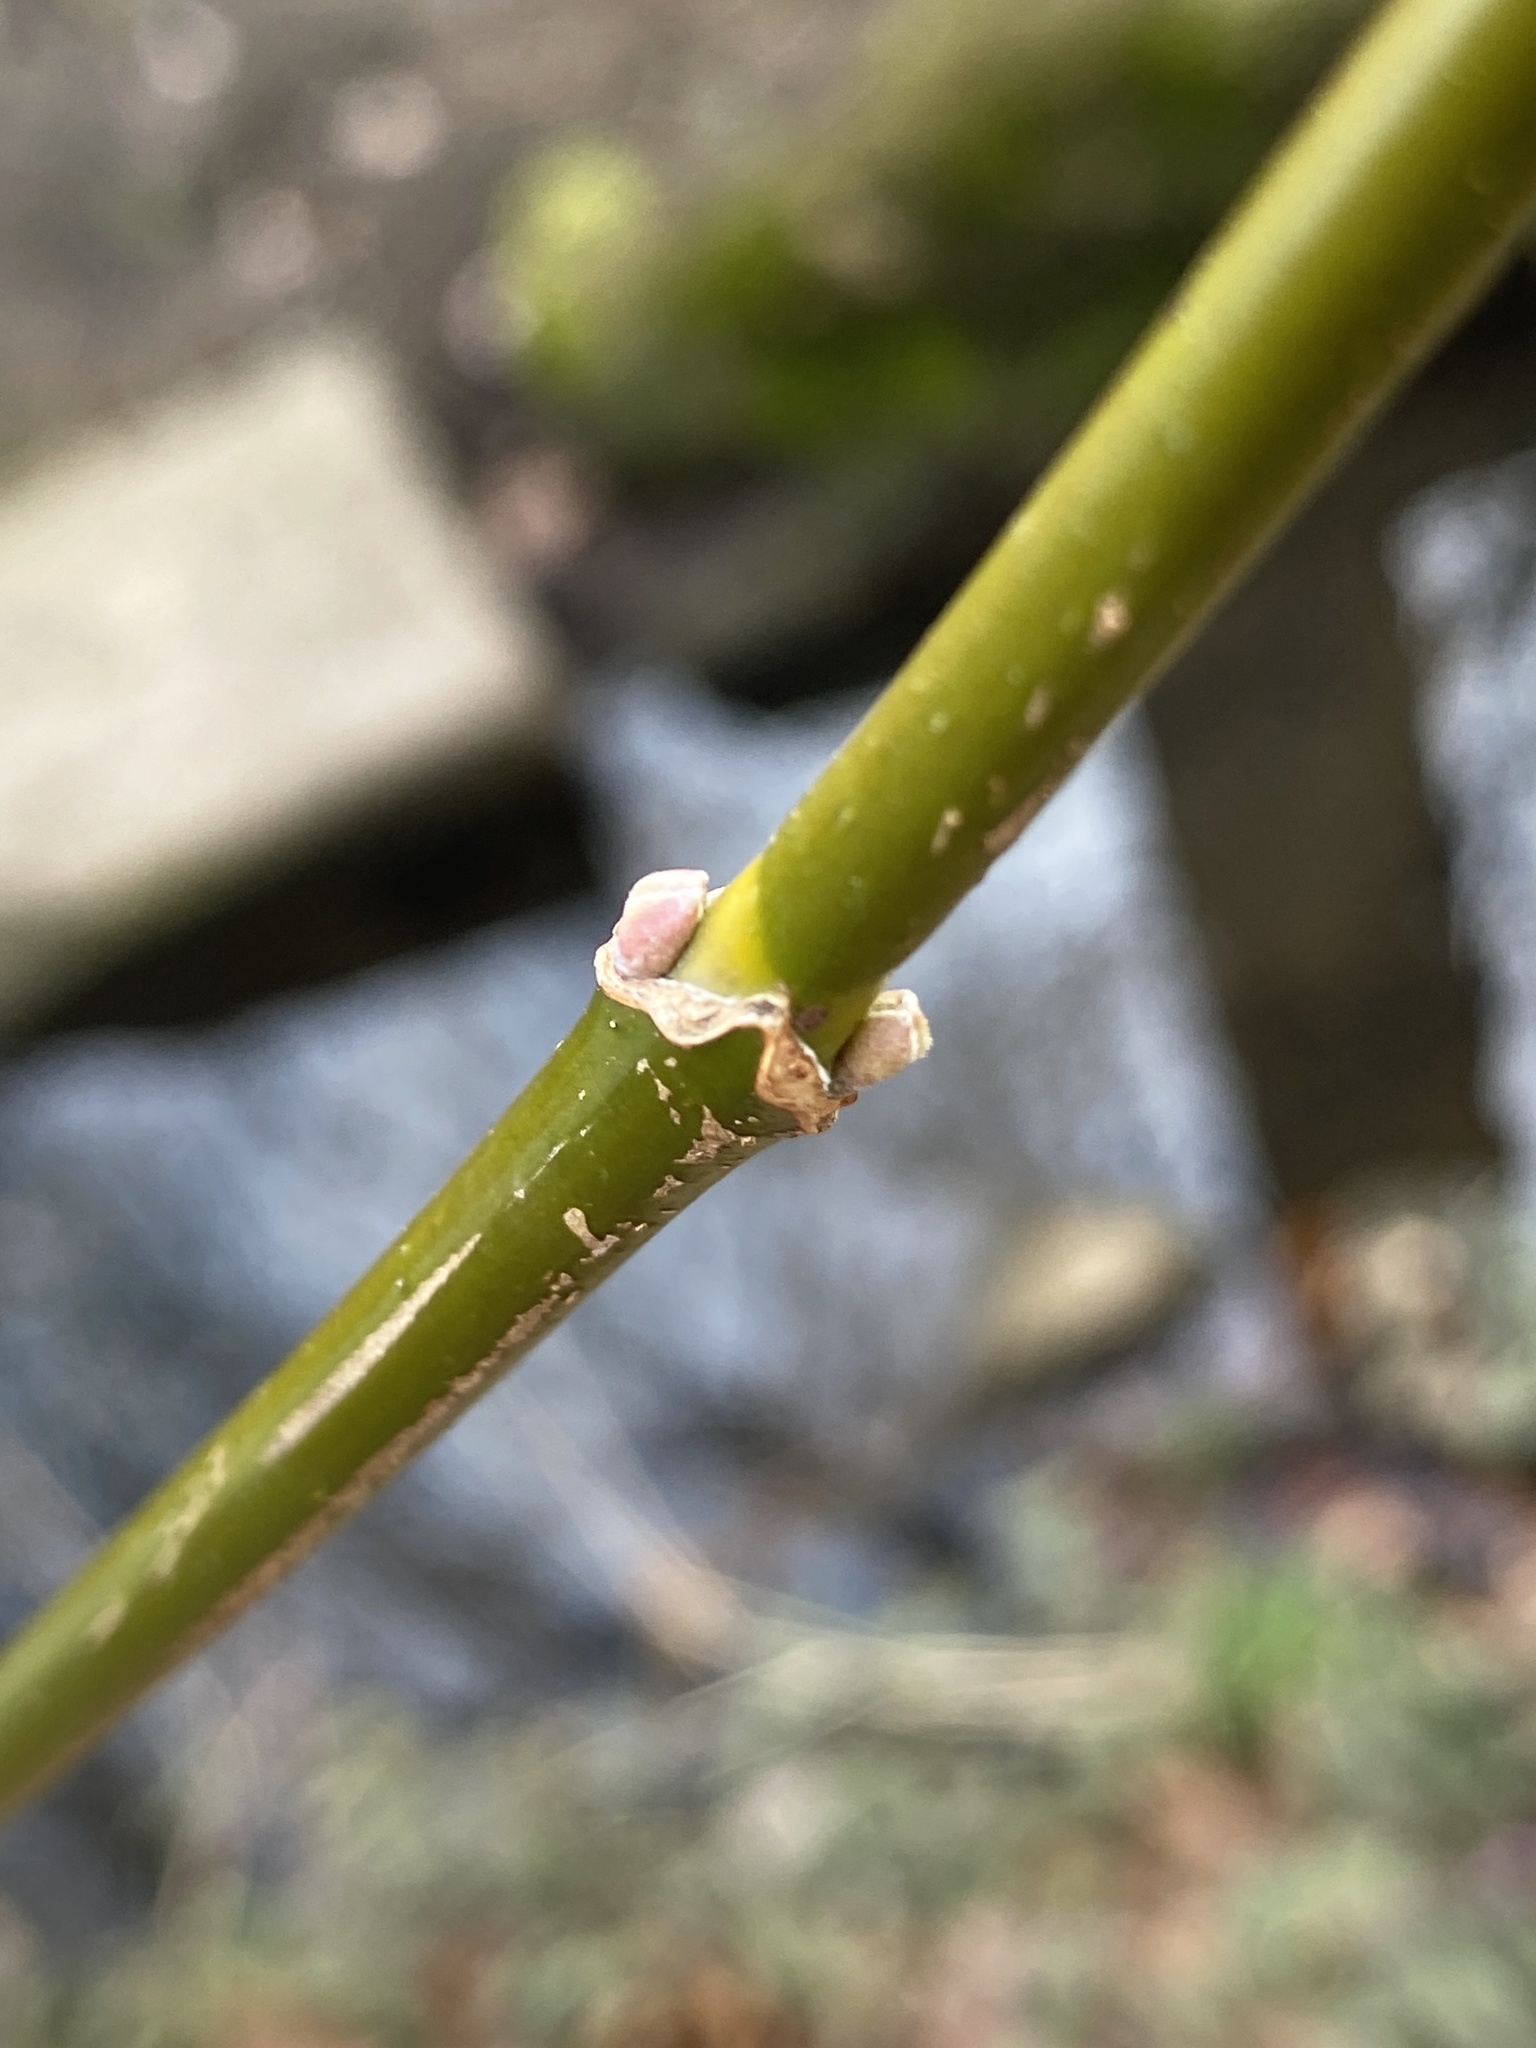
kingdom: Plantae
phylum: Tracheophyta
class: Magnoliopsida
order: Sapindales
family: Sapindaceae
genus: Acer
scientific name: Acer negundo
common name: Ashleaf maple
